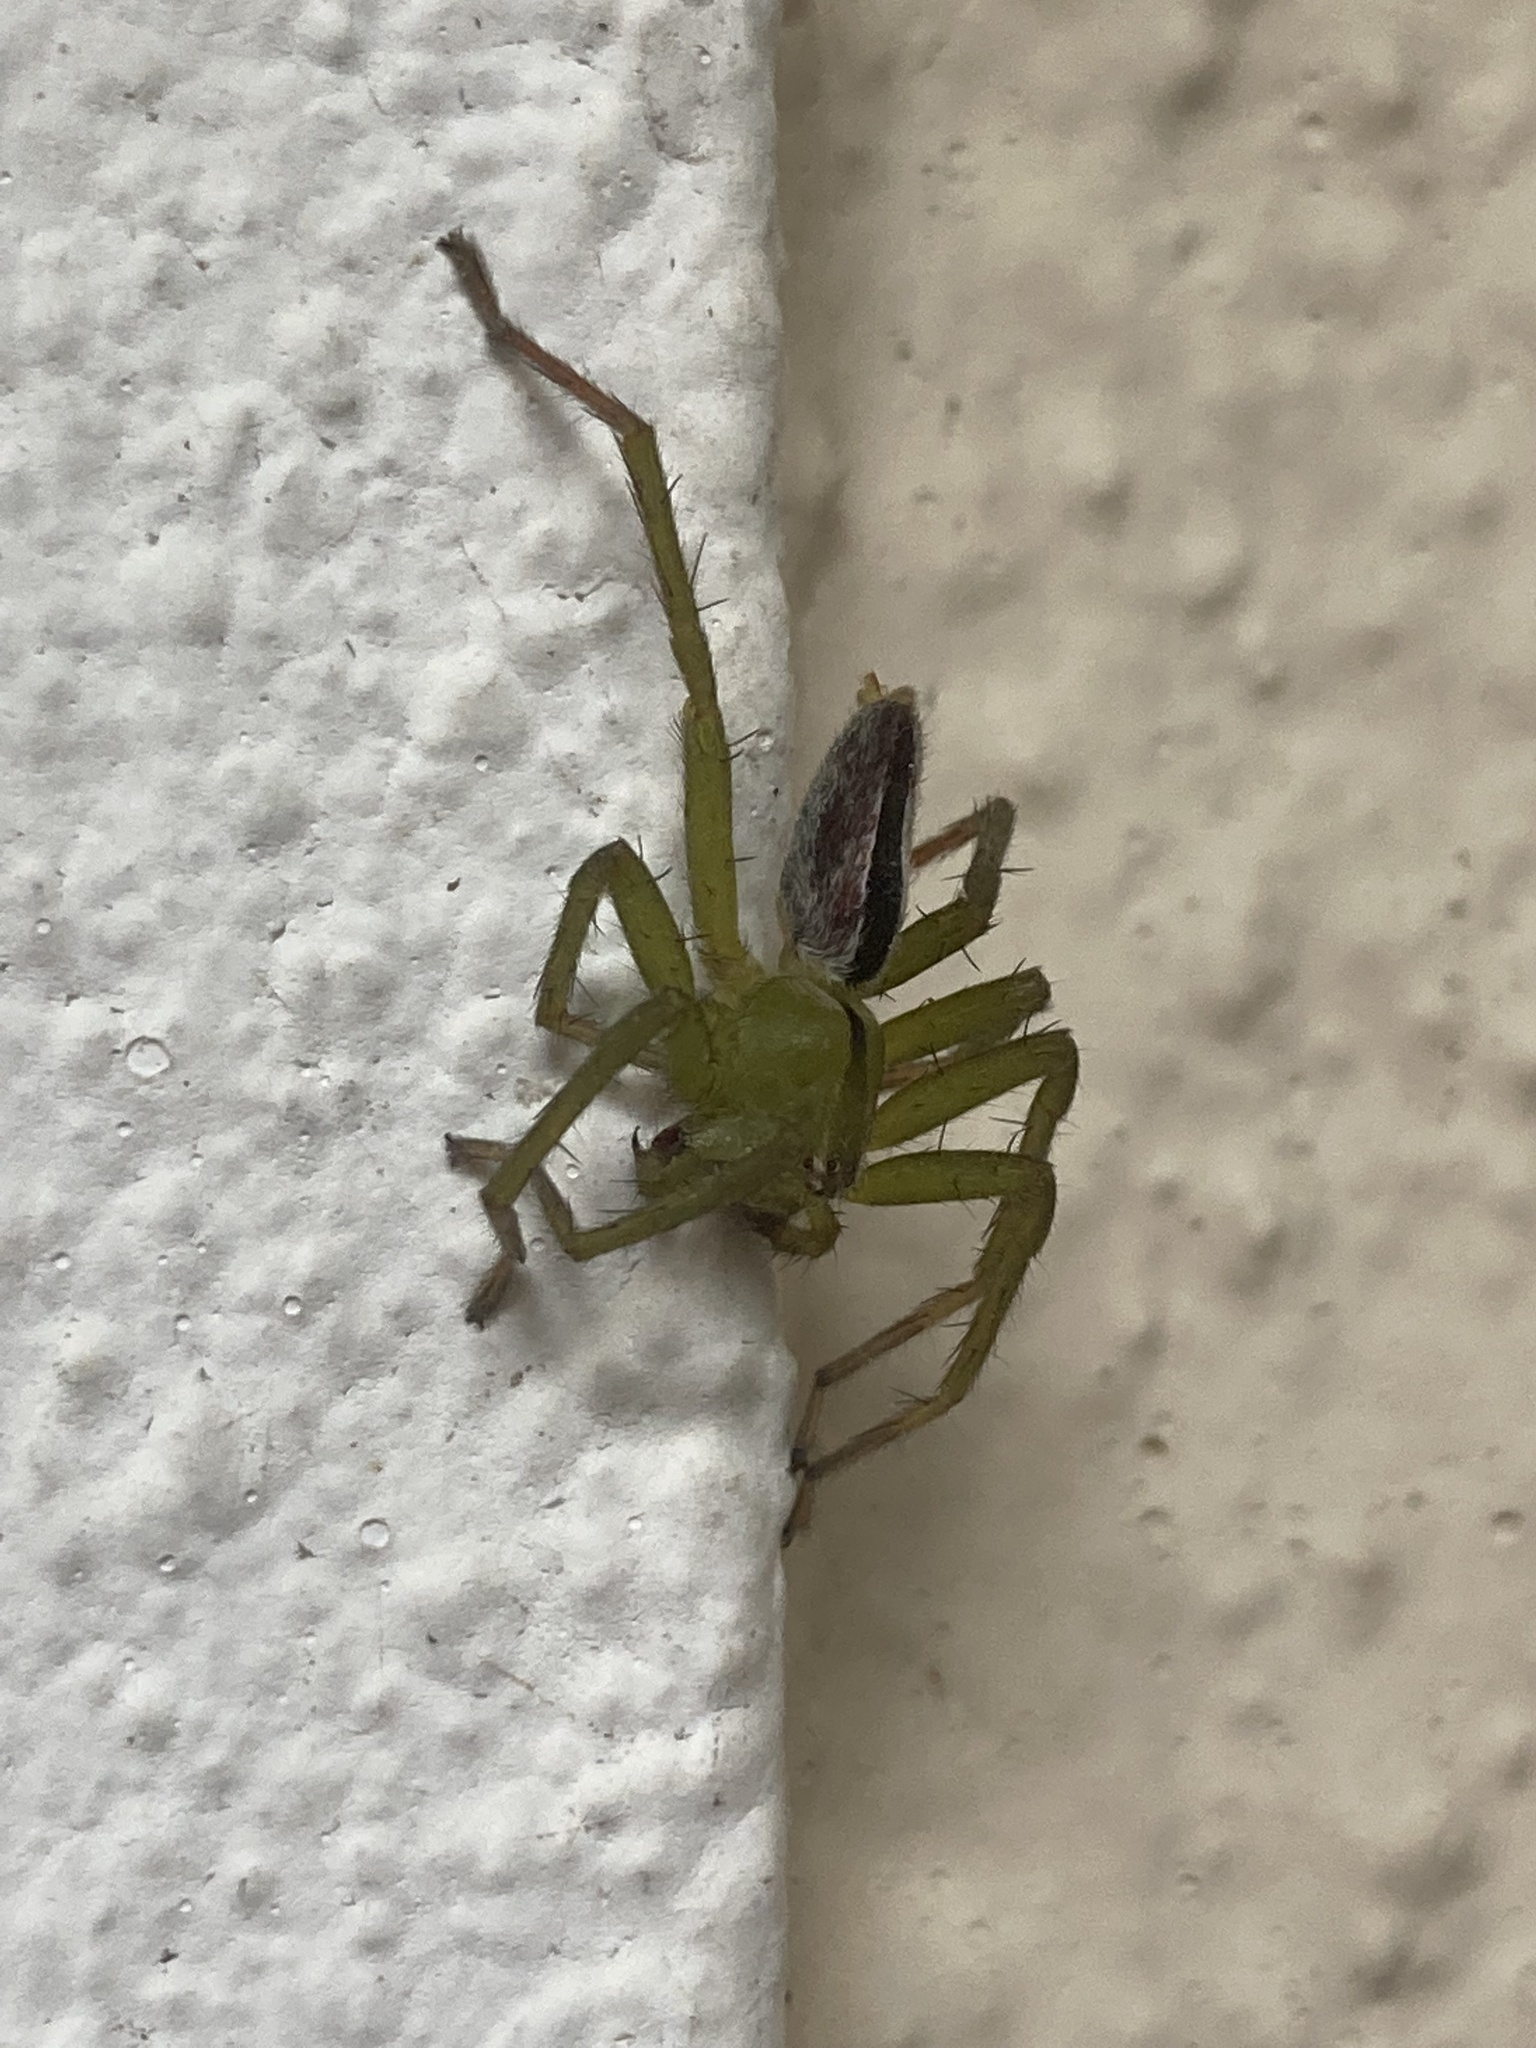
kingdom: Animalia
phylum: Arthropoda
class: Arachnida
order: Araneae
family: Sparassidae
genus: Micrommata
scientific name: Micrommata ligurina
